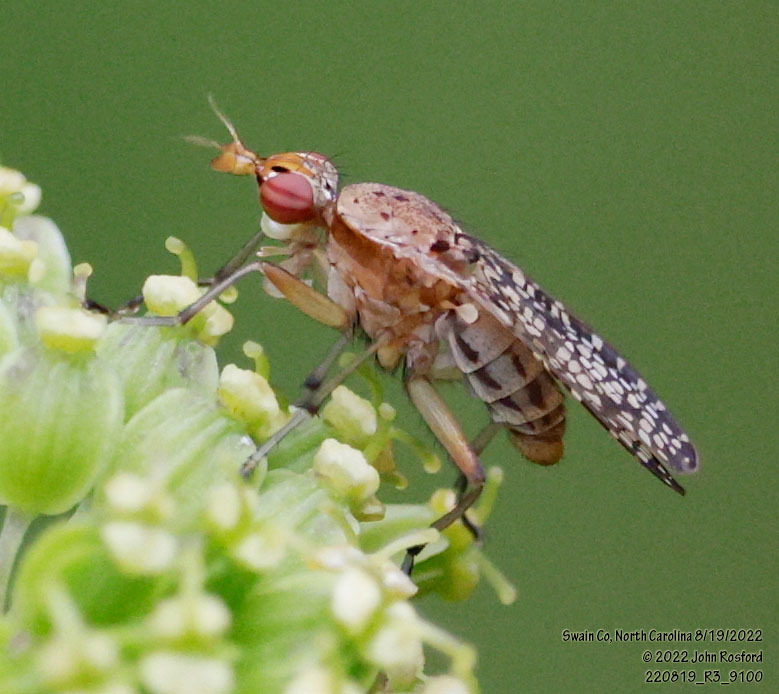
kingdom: Animalia
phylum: Arthropoda
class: Insecta
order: Diptera
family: Sciomyzidae
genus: Euthycera
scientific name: Euthycera flavescens
